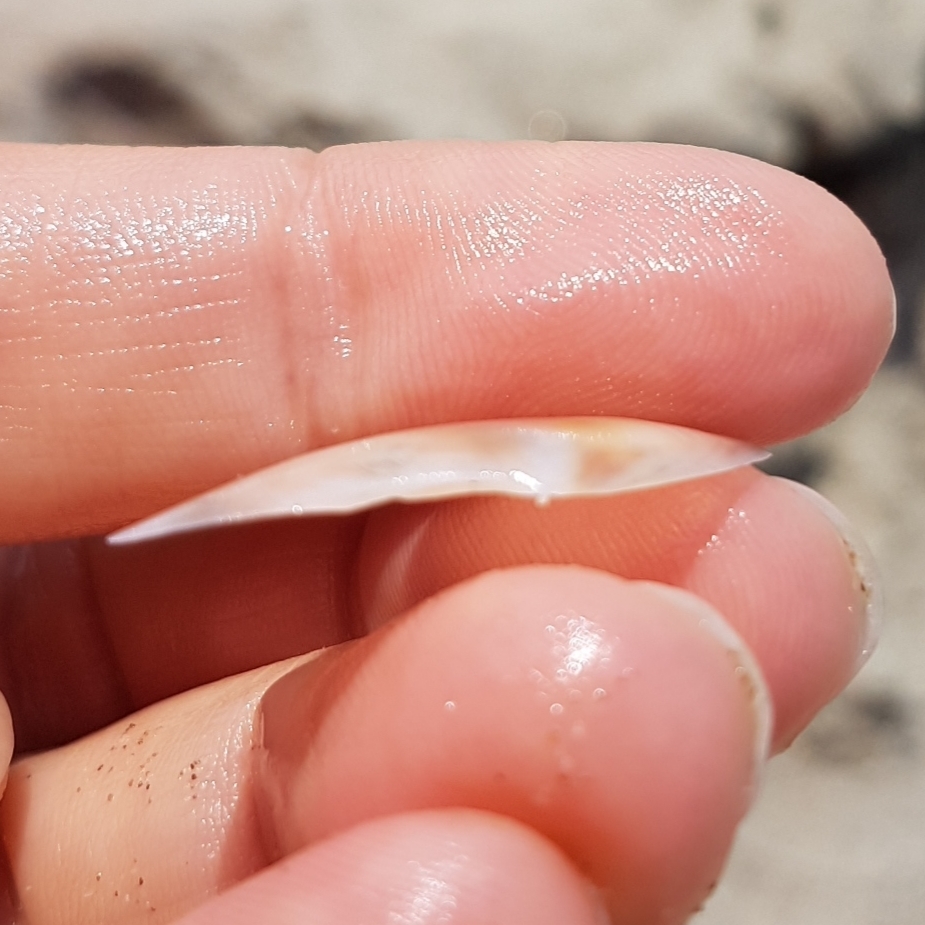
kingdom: Animalia
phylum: Mollusca
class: Bivalvia
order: Cardiida
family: Tellinidae
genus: Bosemprella
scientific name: Bosemprella incarnata
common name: Red tellin
